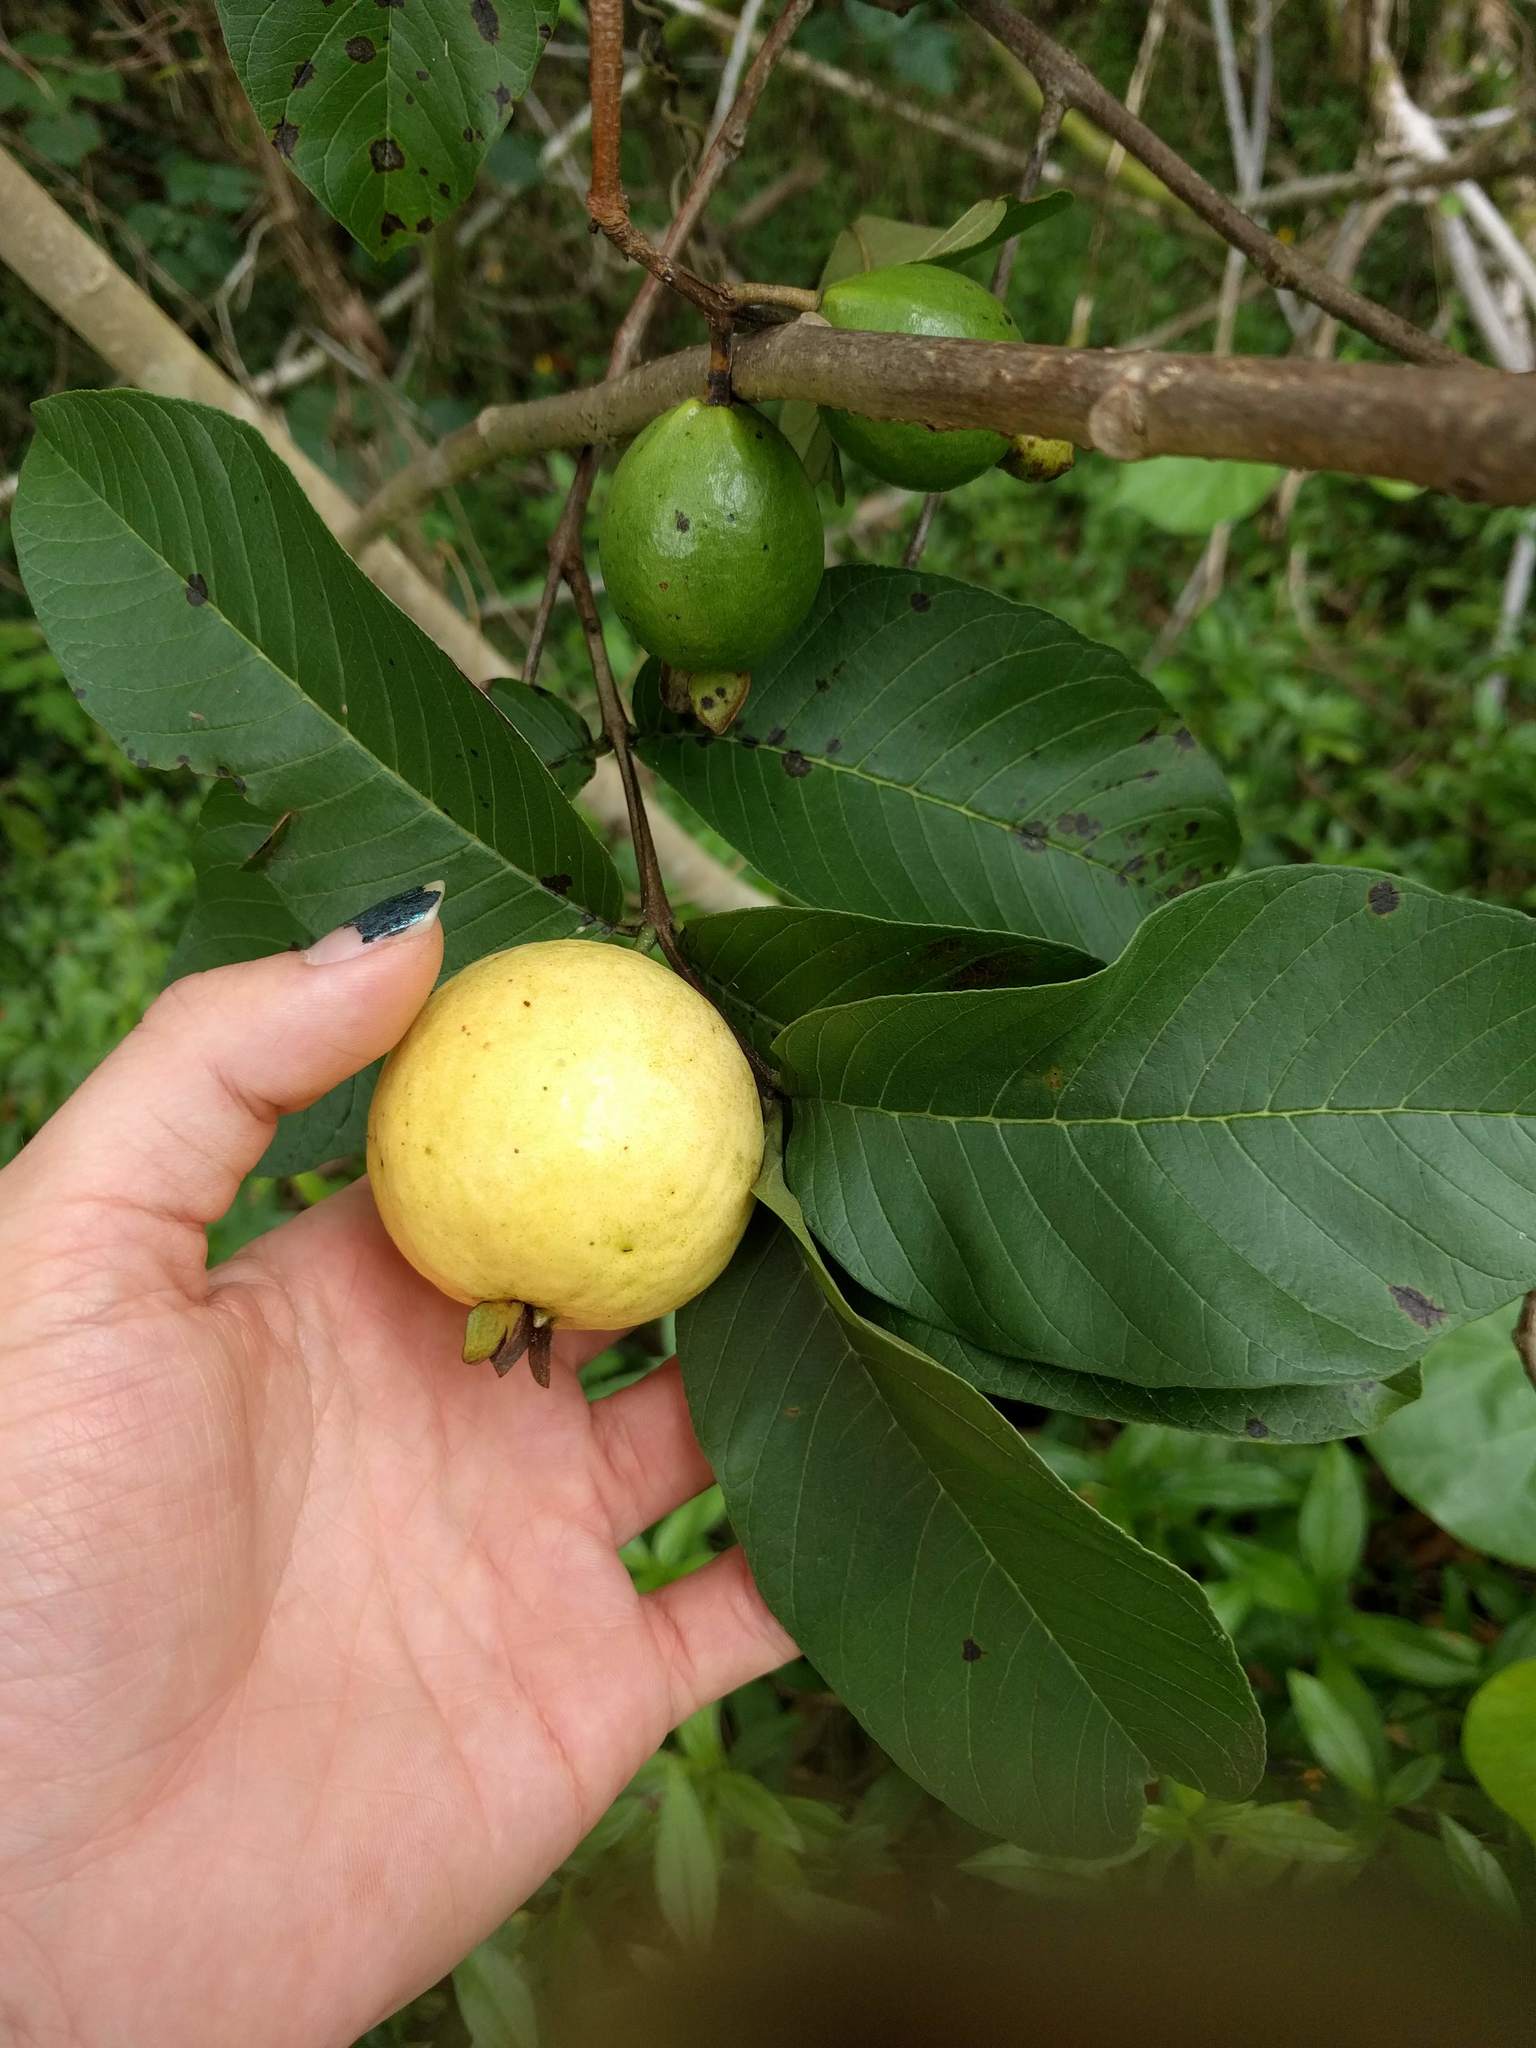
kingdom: Plantae
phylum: Tracheophyta
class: Magnoliopsida
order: Myrtales
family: Myrtaceae
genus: Psidium
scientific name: Psidium guajava
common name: Guava
